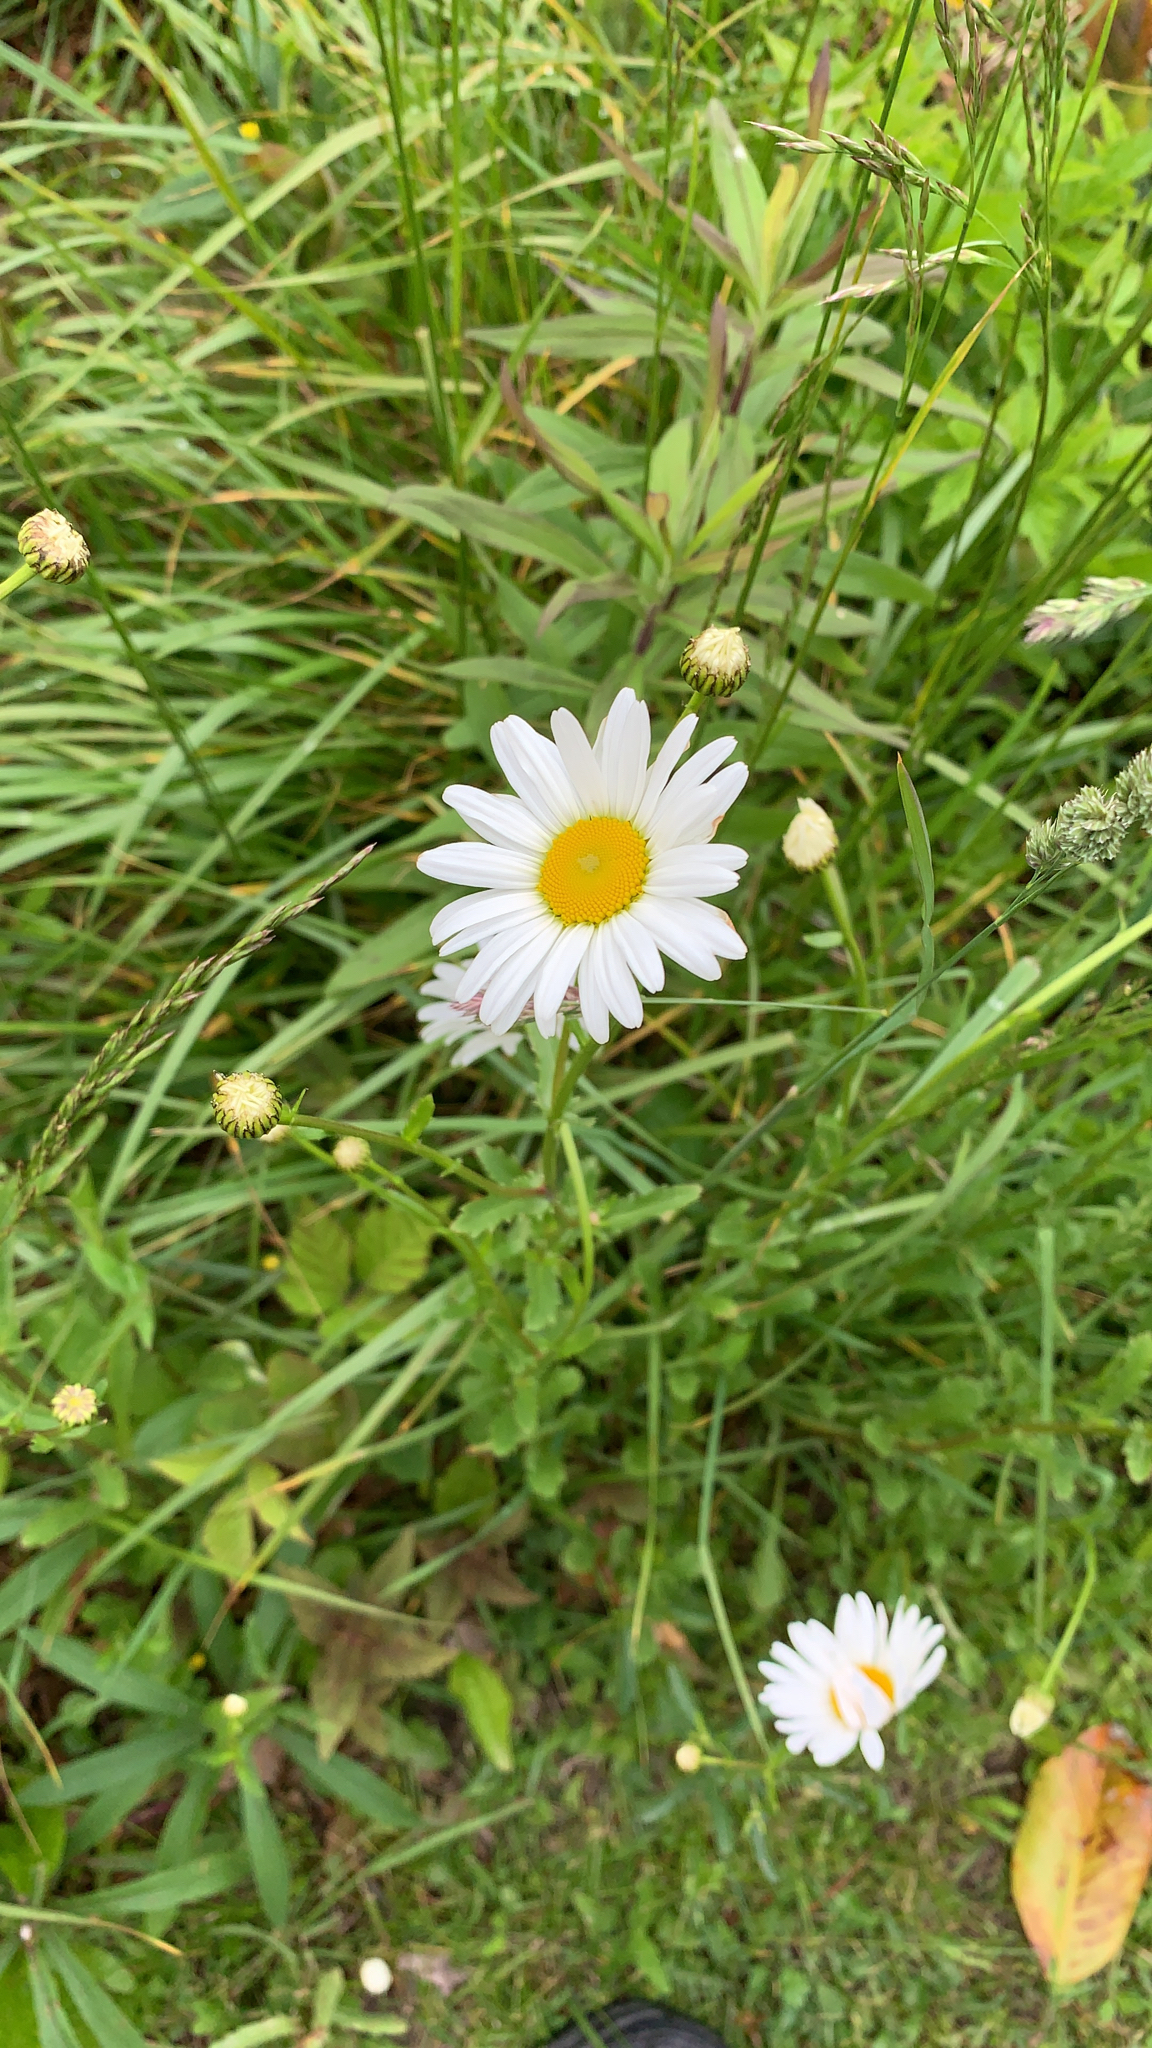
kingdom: Plantae
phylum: Tracheophyta
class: Magnoliopsida
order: Asterales
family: Asteraceae
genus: Leucanthemum
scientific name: Leucanthemum vulgare
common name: Oxeye daisy
